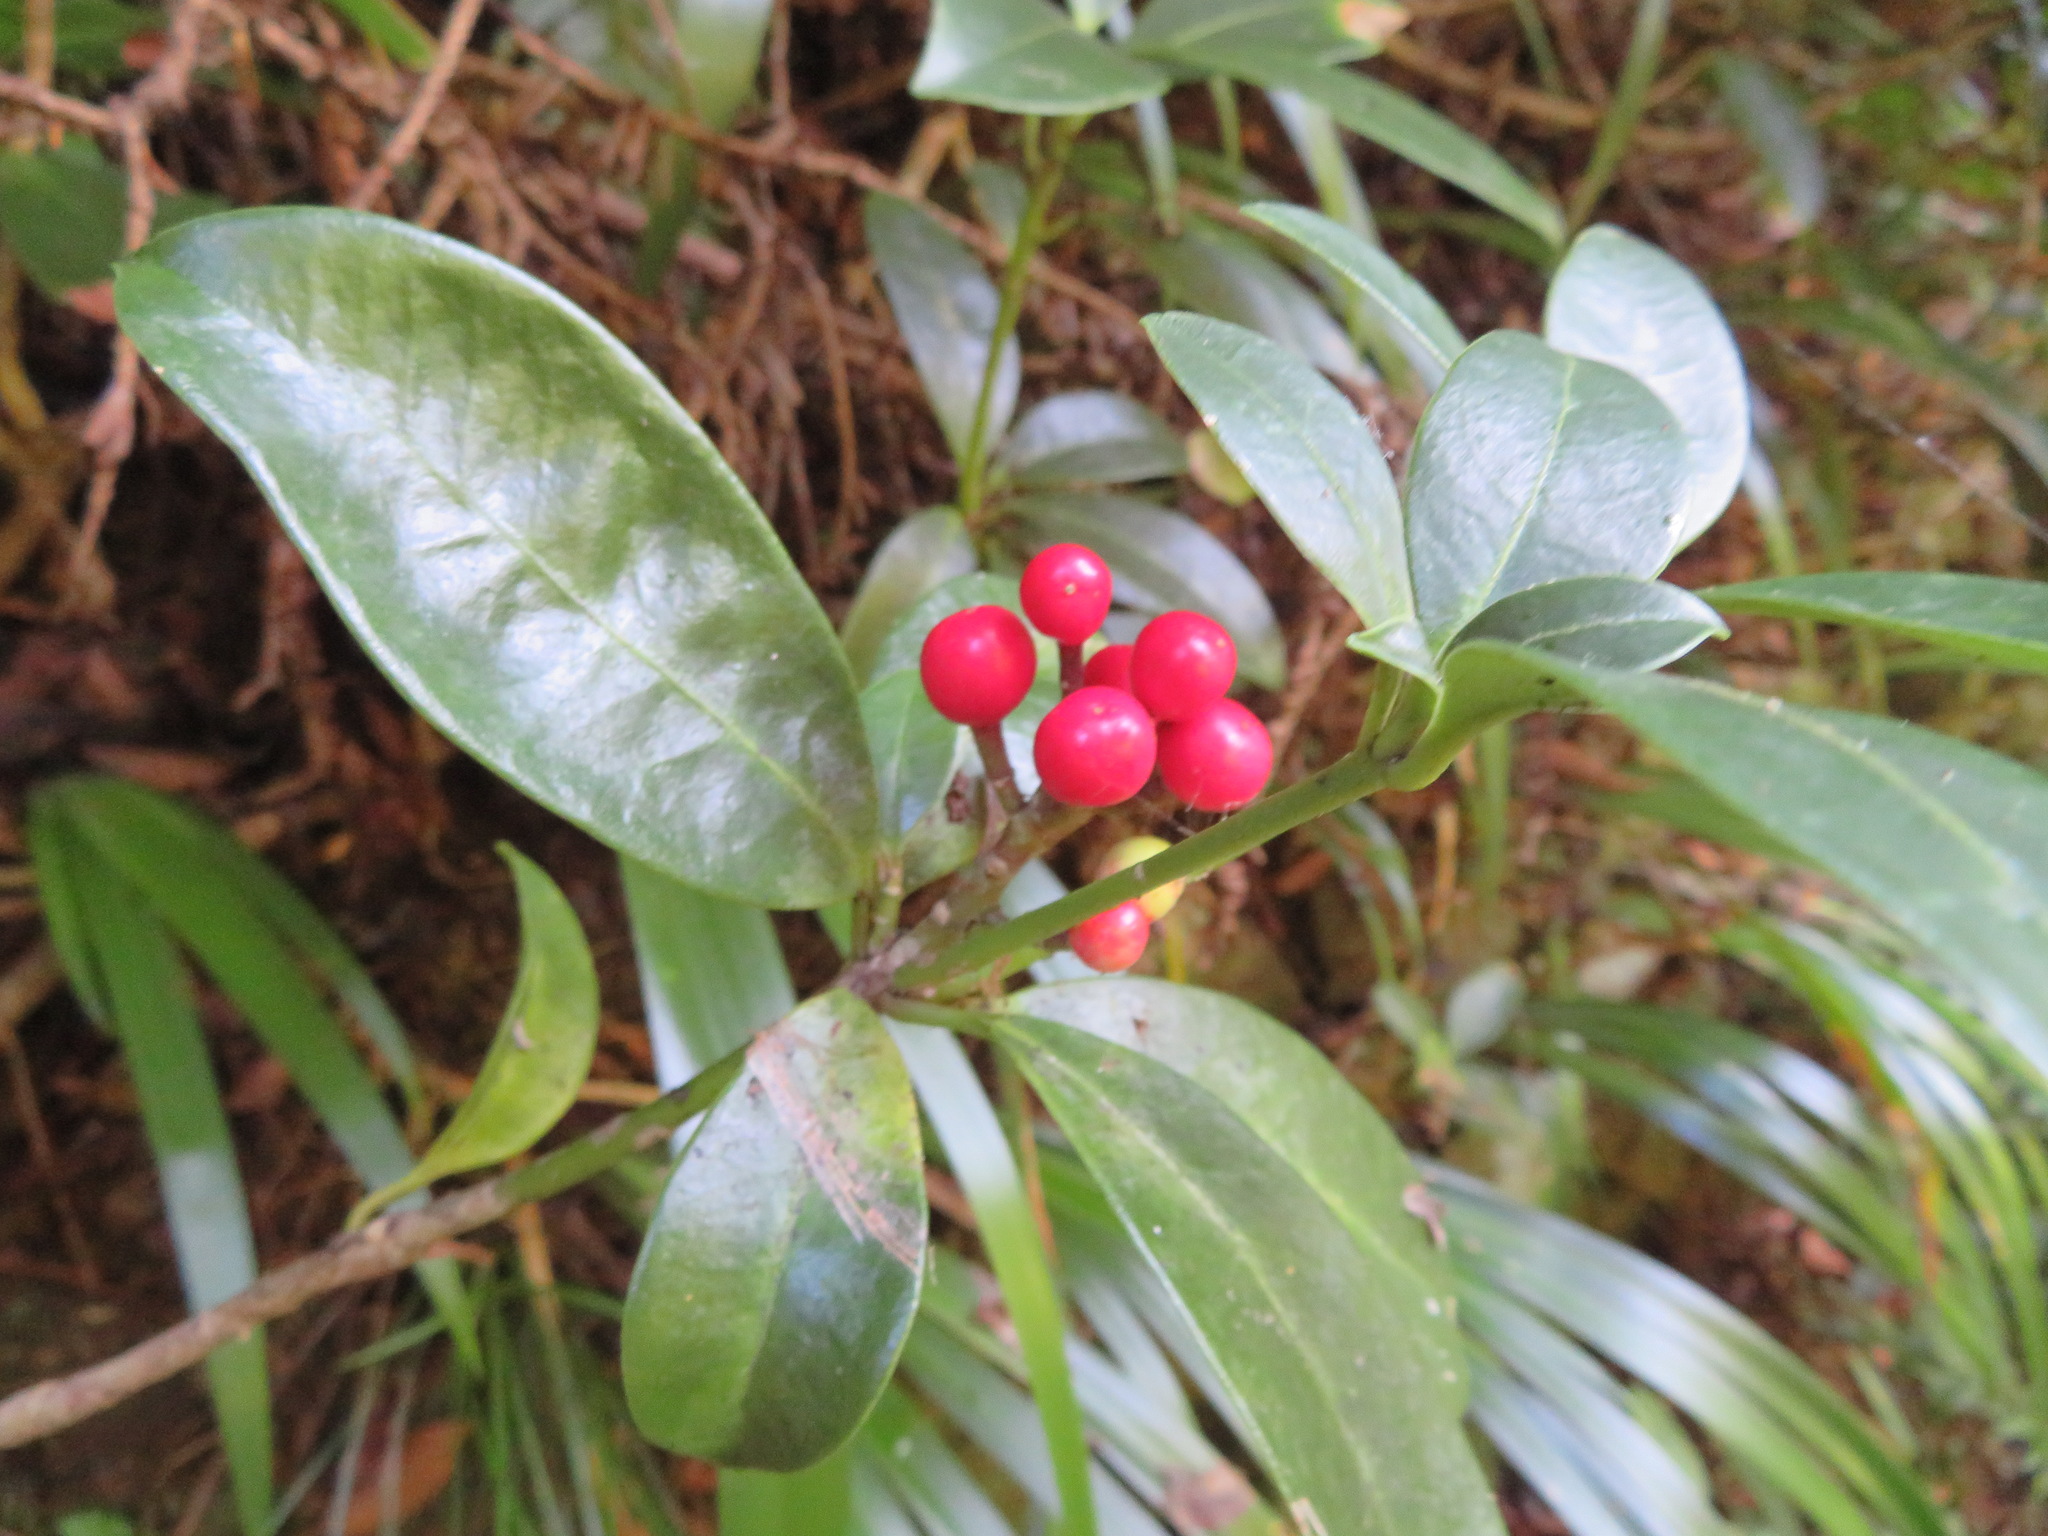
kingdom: Plantae
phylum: Tracheophyta
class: Magnoliopsida
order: Sapindales
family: Rutaceae
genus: Skimmia
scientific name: Skimmia japonica
